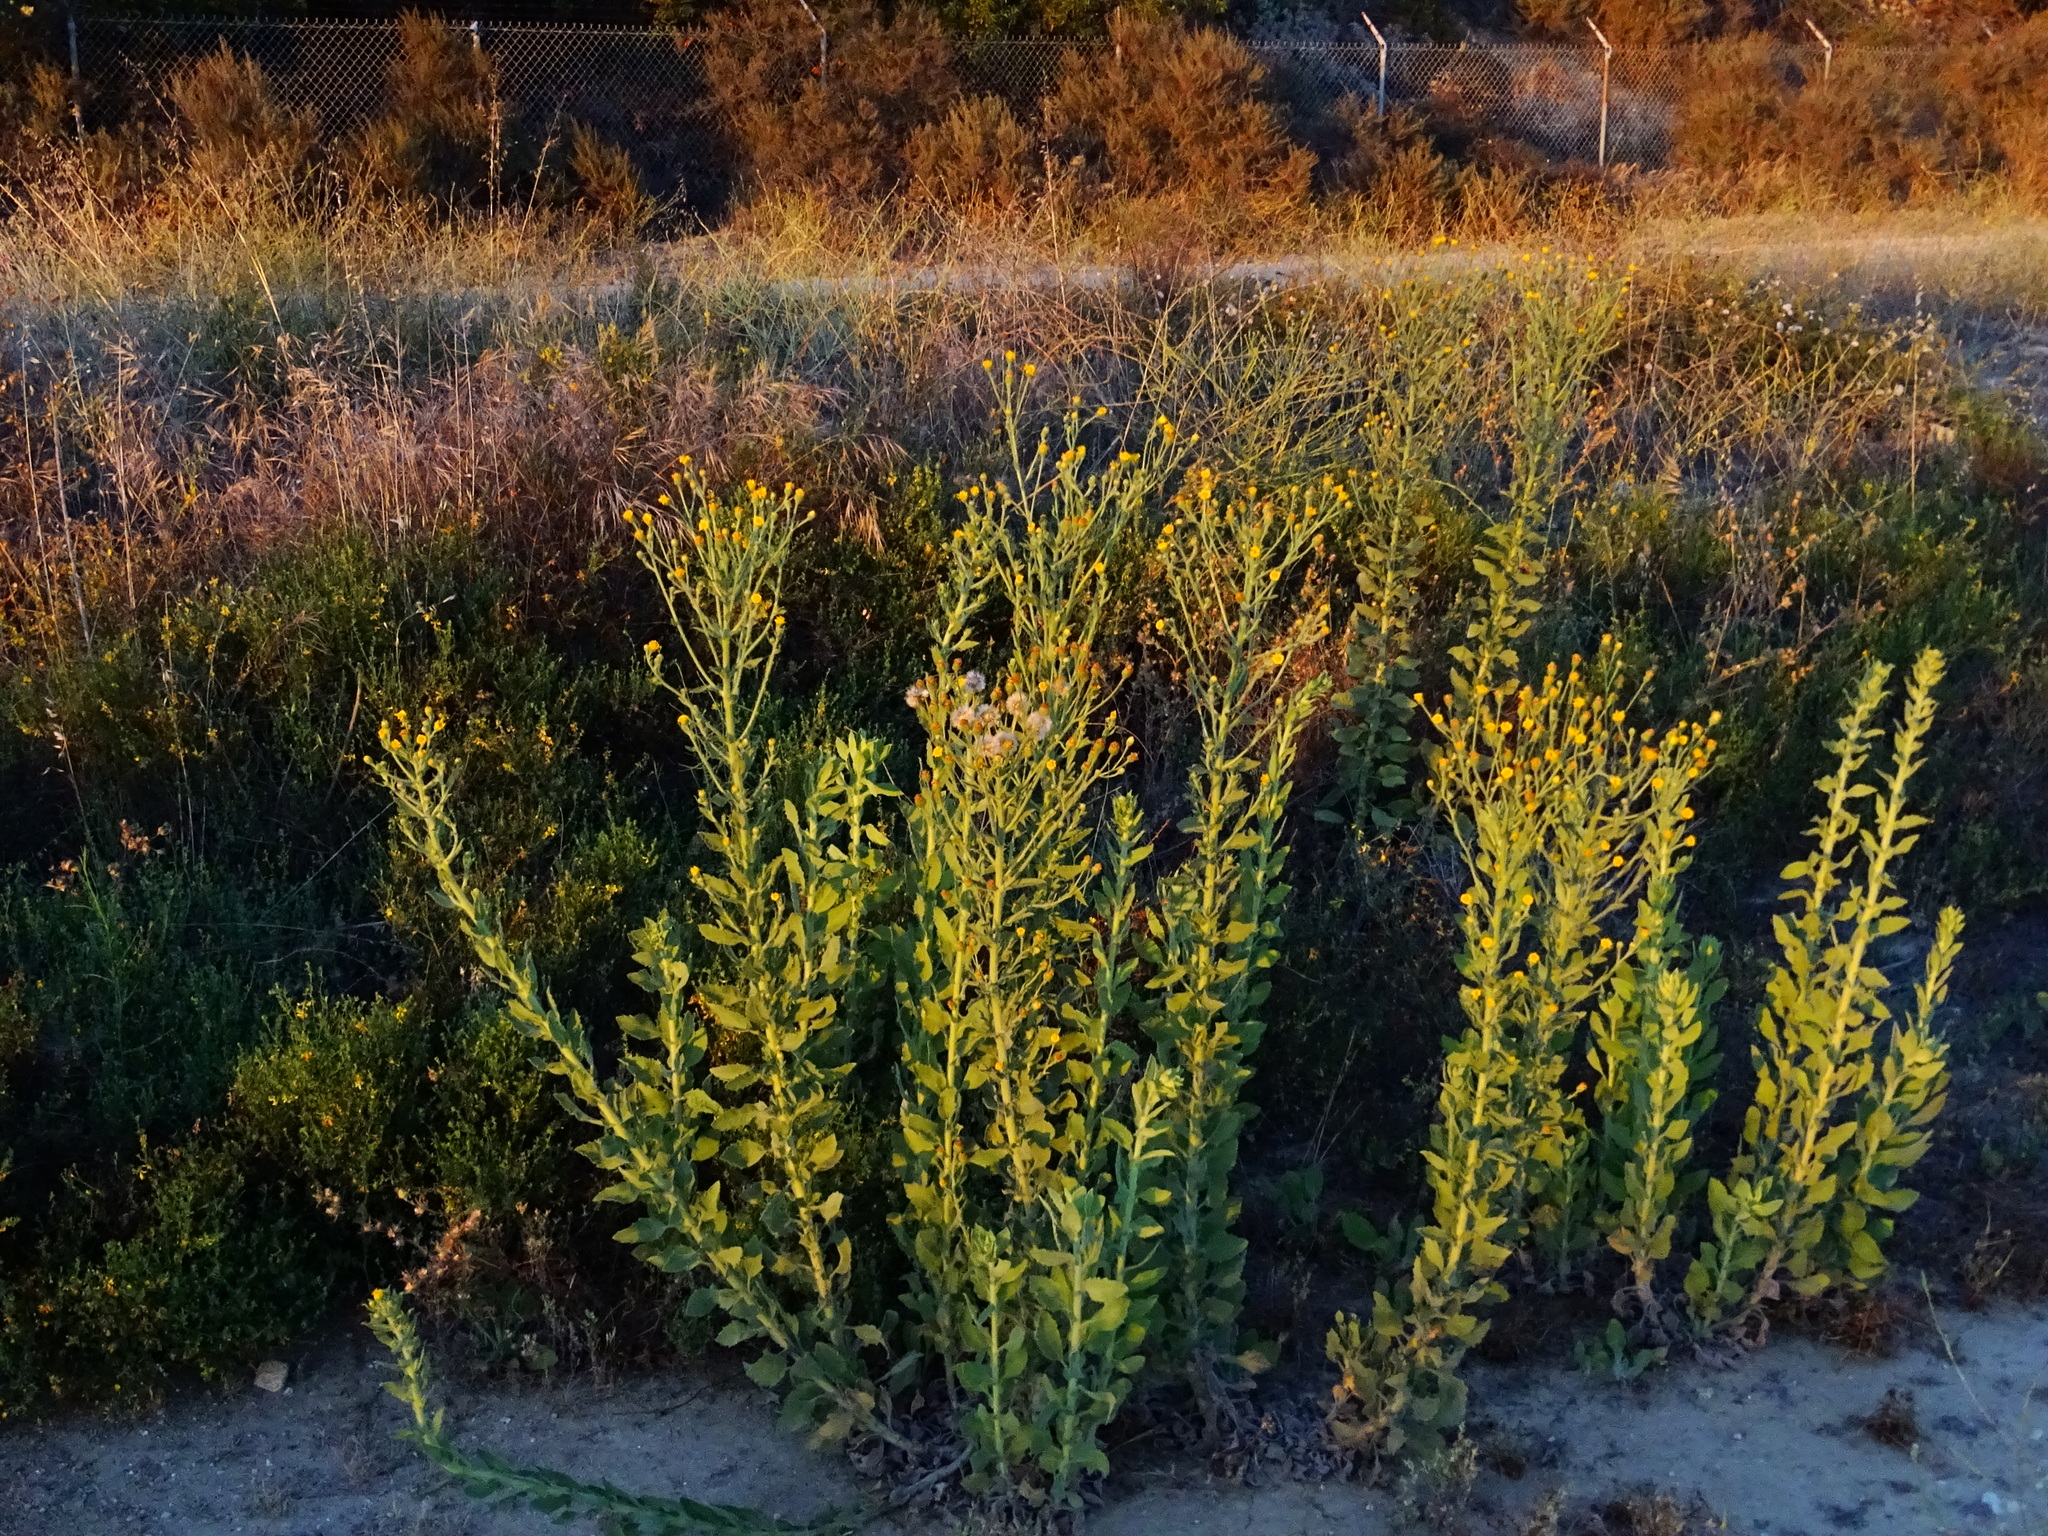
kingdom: Plantae
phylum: Tracheophyta
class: Magnoliopsida
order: Asterales
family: Asteraceae
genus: Heterotheca
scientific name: Heterotheca grandiflora
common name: Telegraphweed
